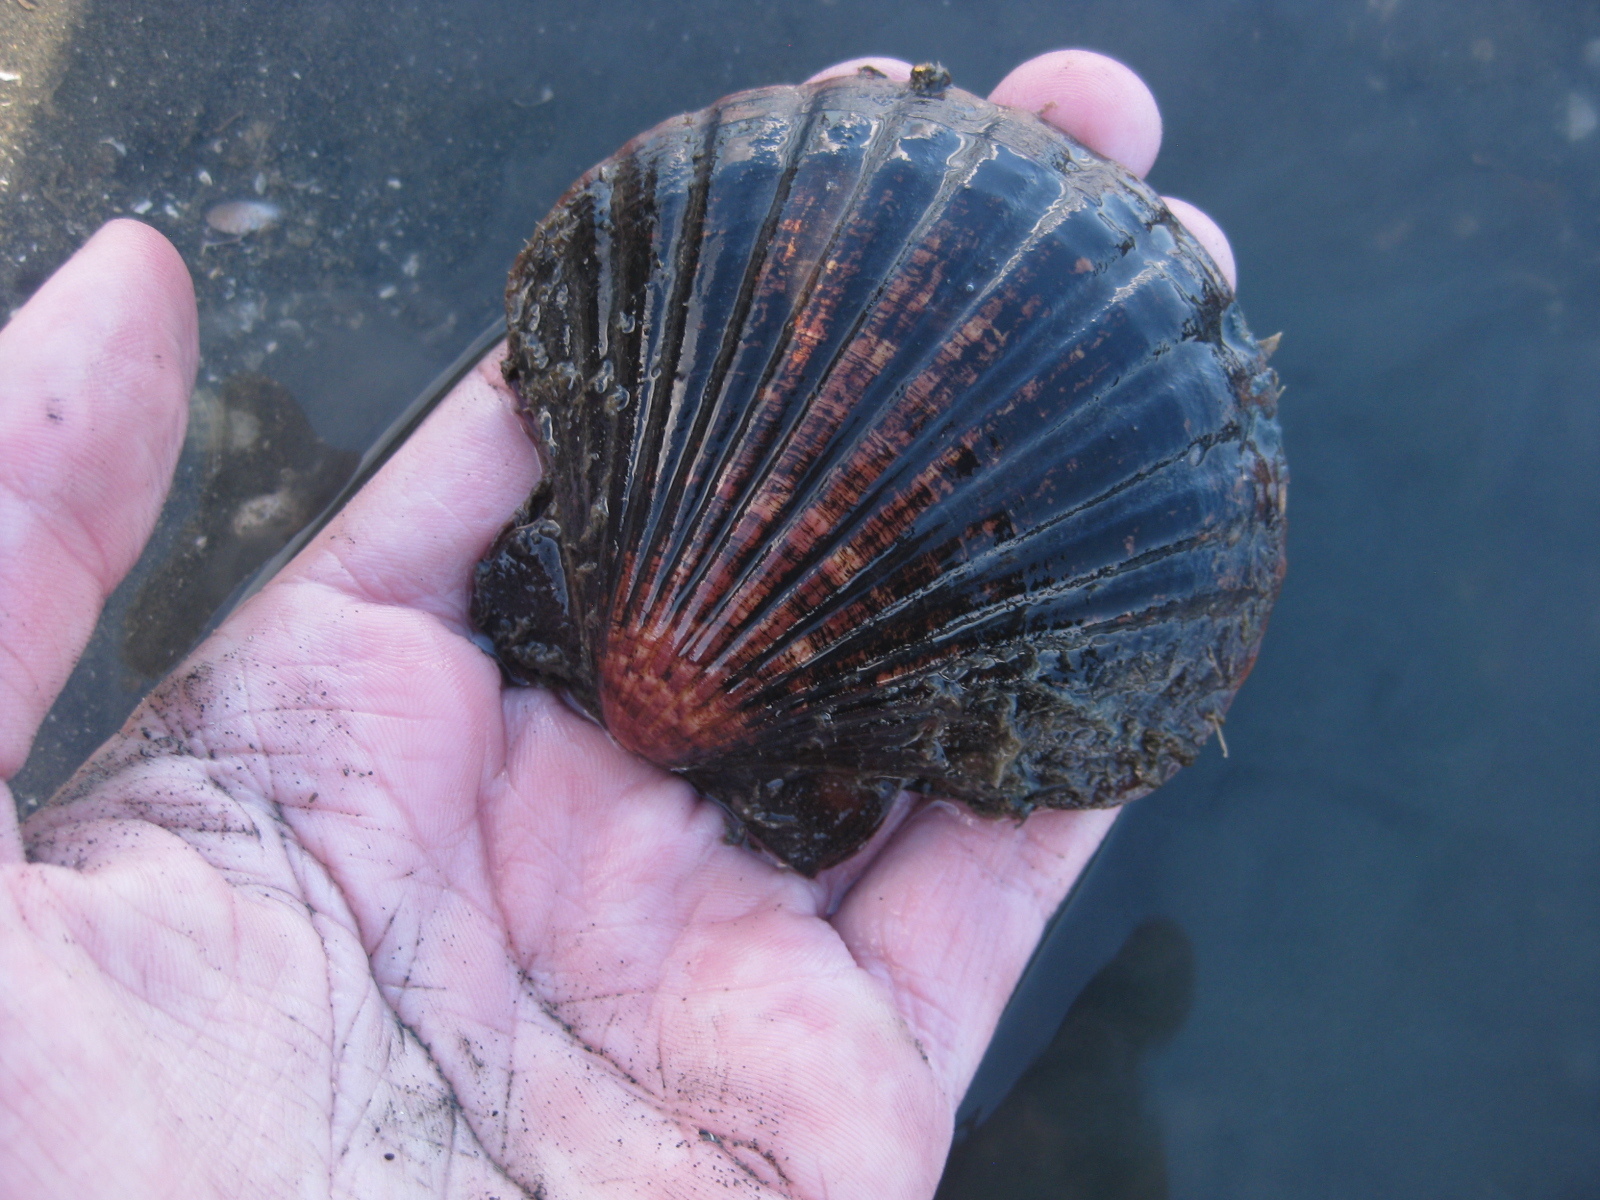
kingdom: Animalia
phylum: Mollusca
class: Bivalvia
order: Pectinida
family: Pectinidae
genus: Pecten
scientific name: Pecten novaezelandiae
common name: New zealand scallop
